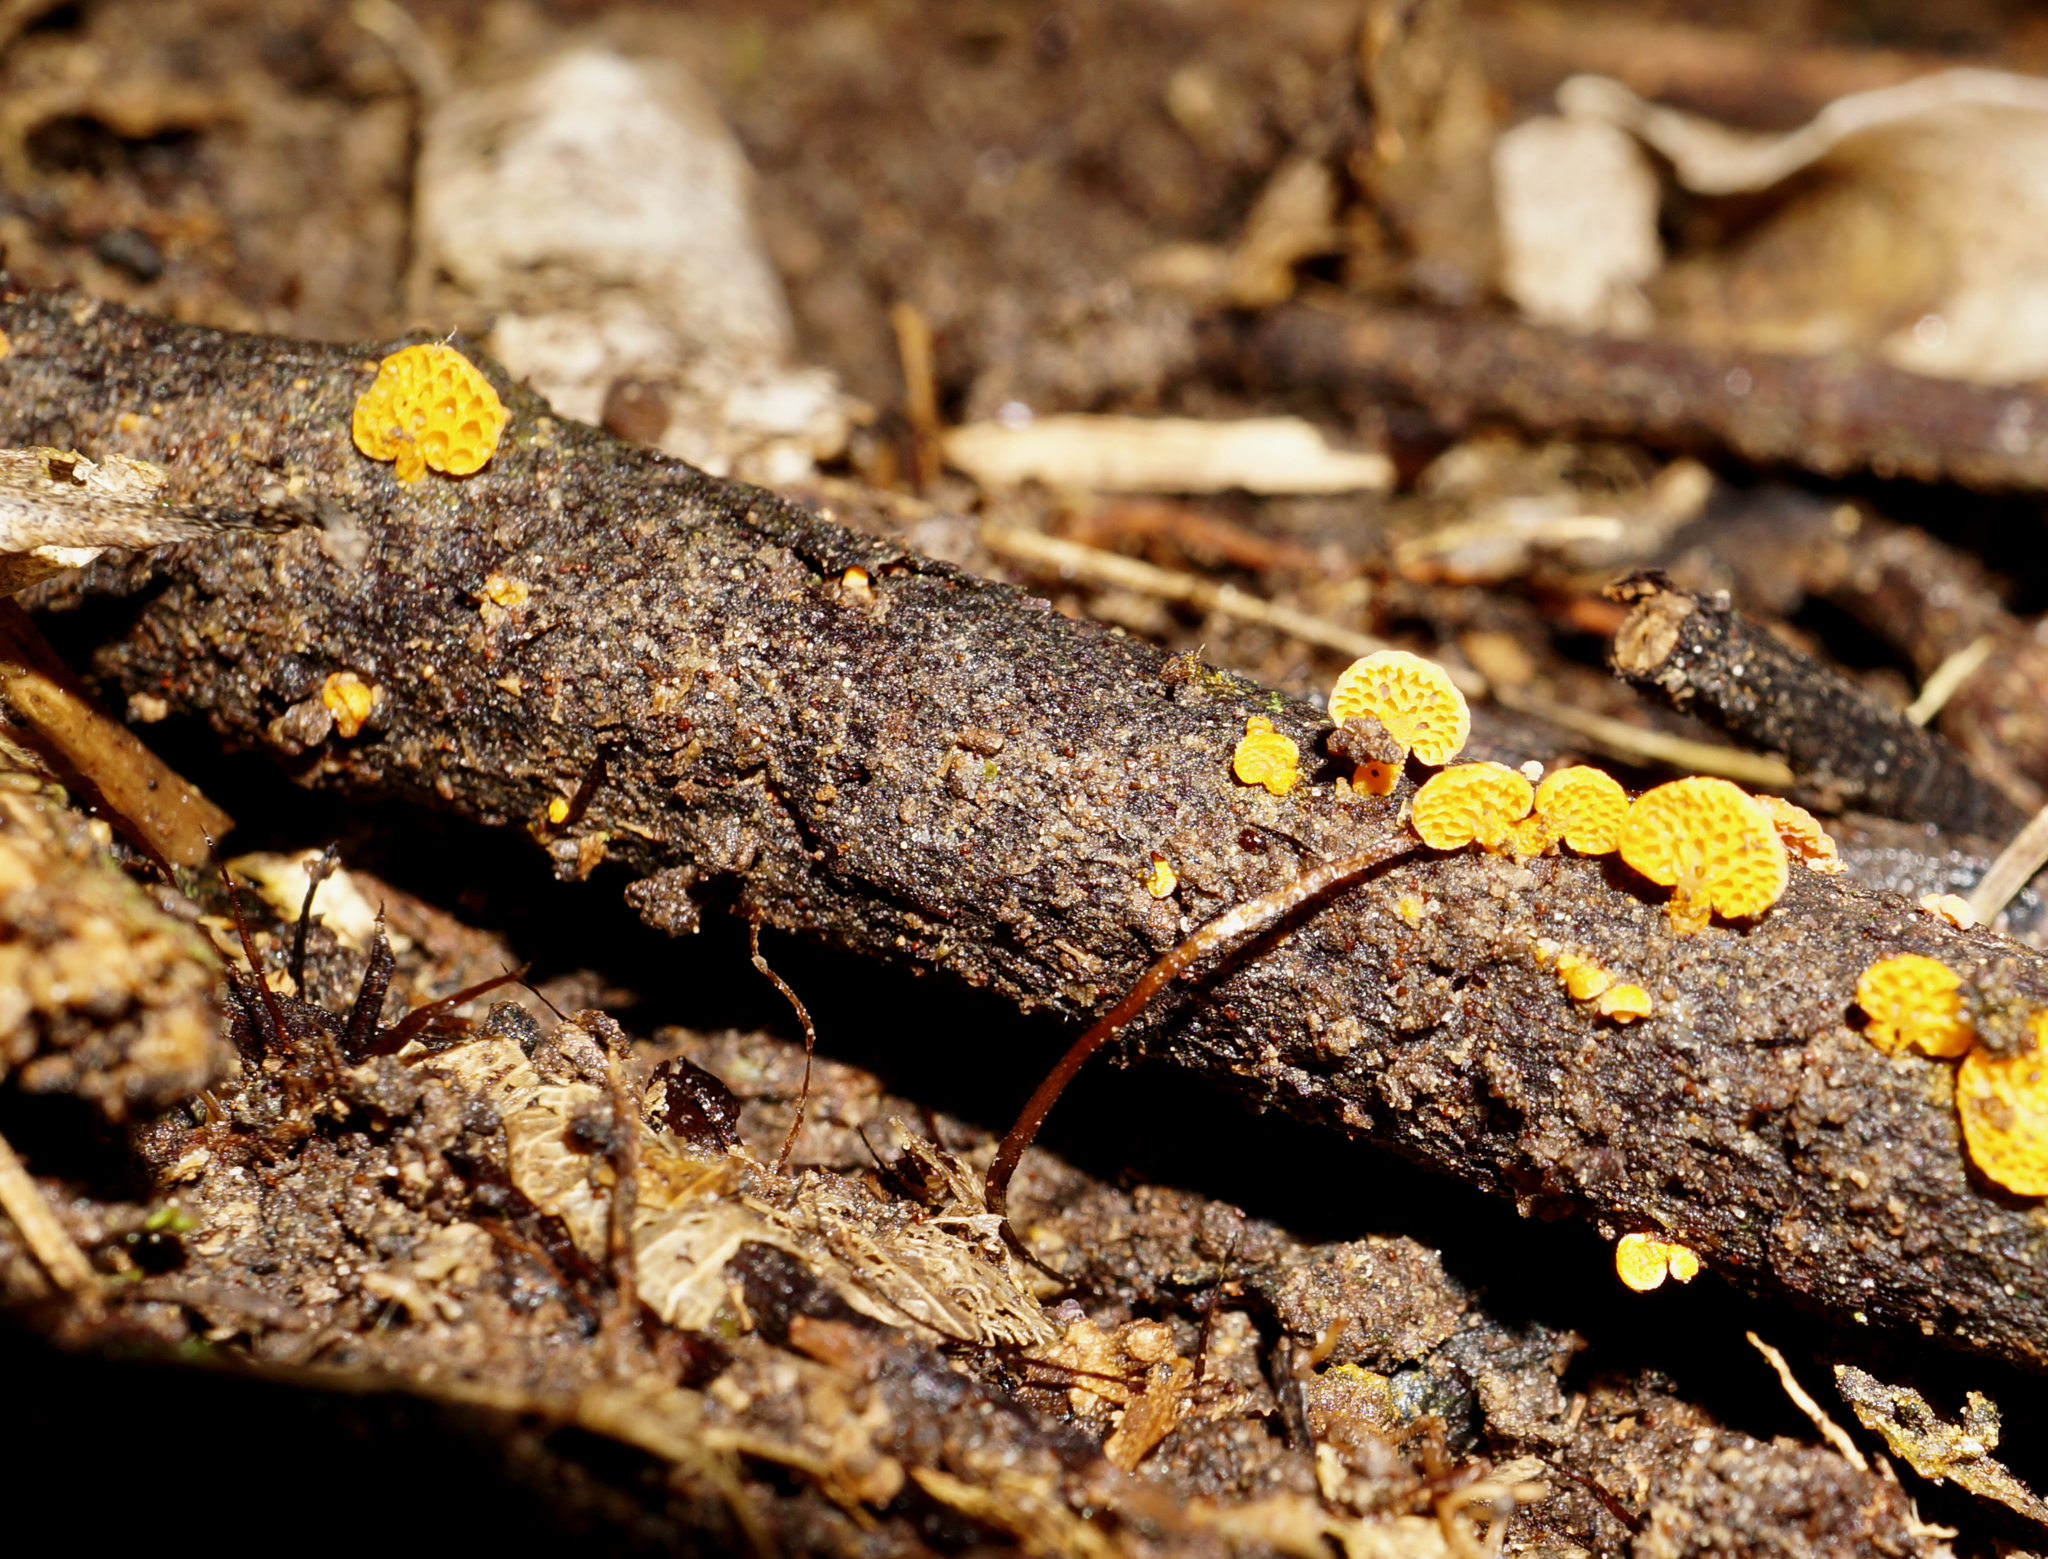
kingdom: Fungi
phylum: Basidiomycota
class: Agaricomycetes
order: Agaricales
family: Mycenaceae
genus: Favolaschia
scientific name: Favolaschia claudopus
